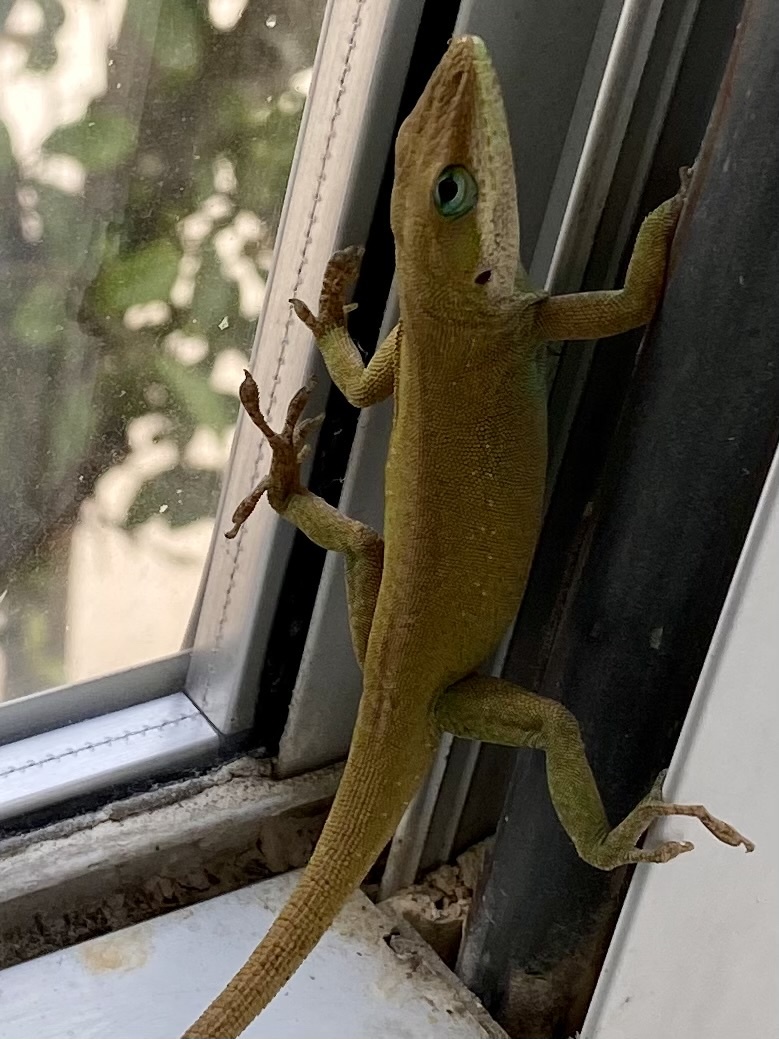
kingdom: Animalia
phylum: Chordata
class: Squamata
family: Dactyloidae
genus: Anolis
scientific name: Anolis carolinensis
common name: Green anole
